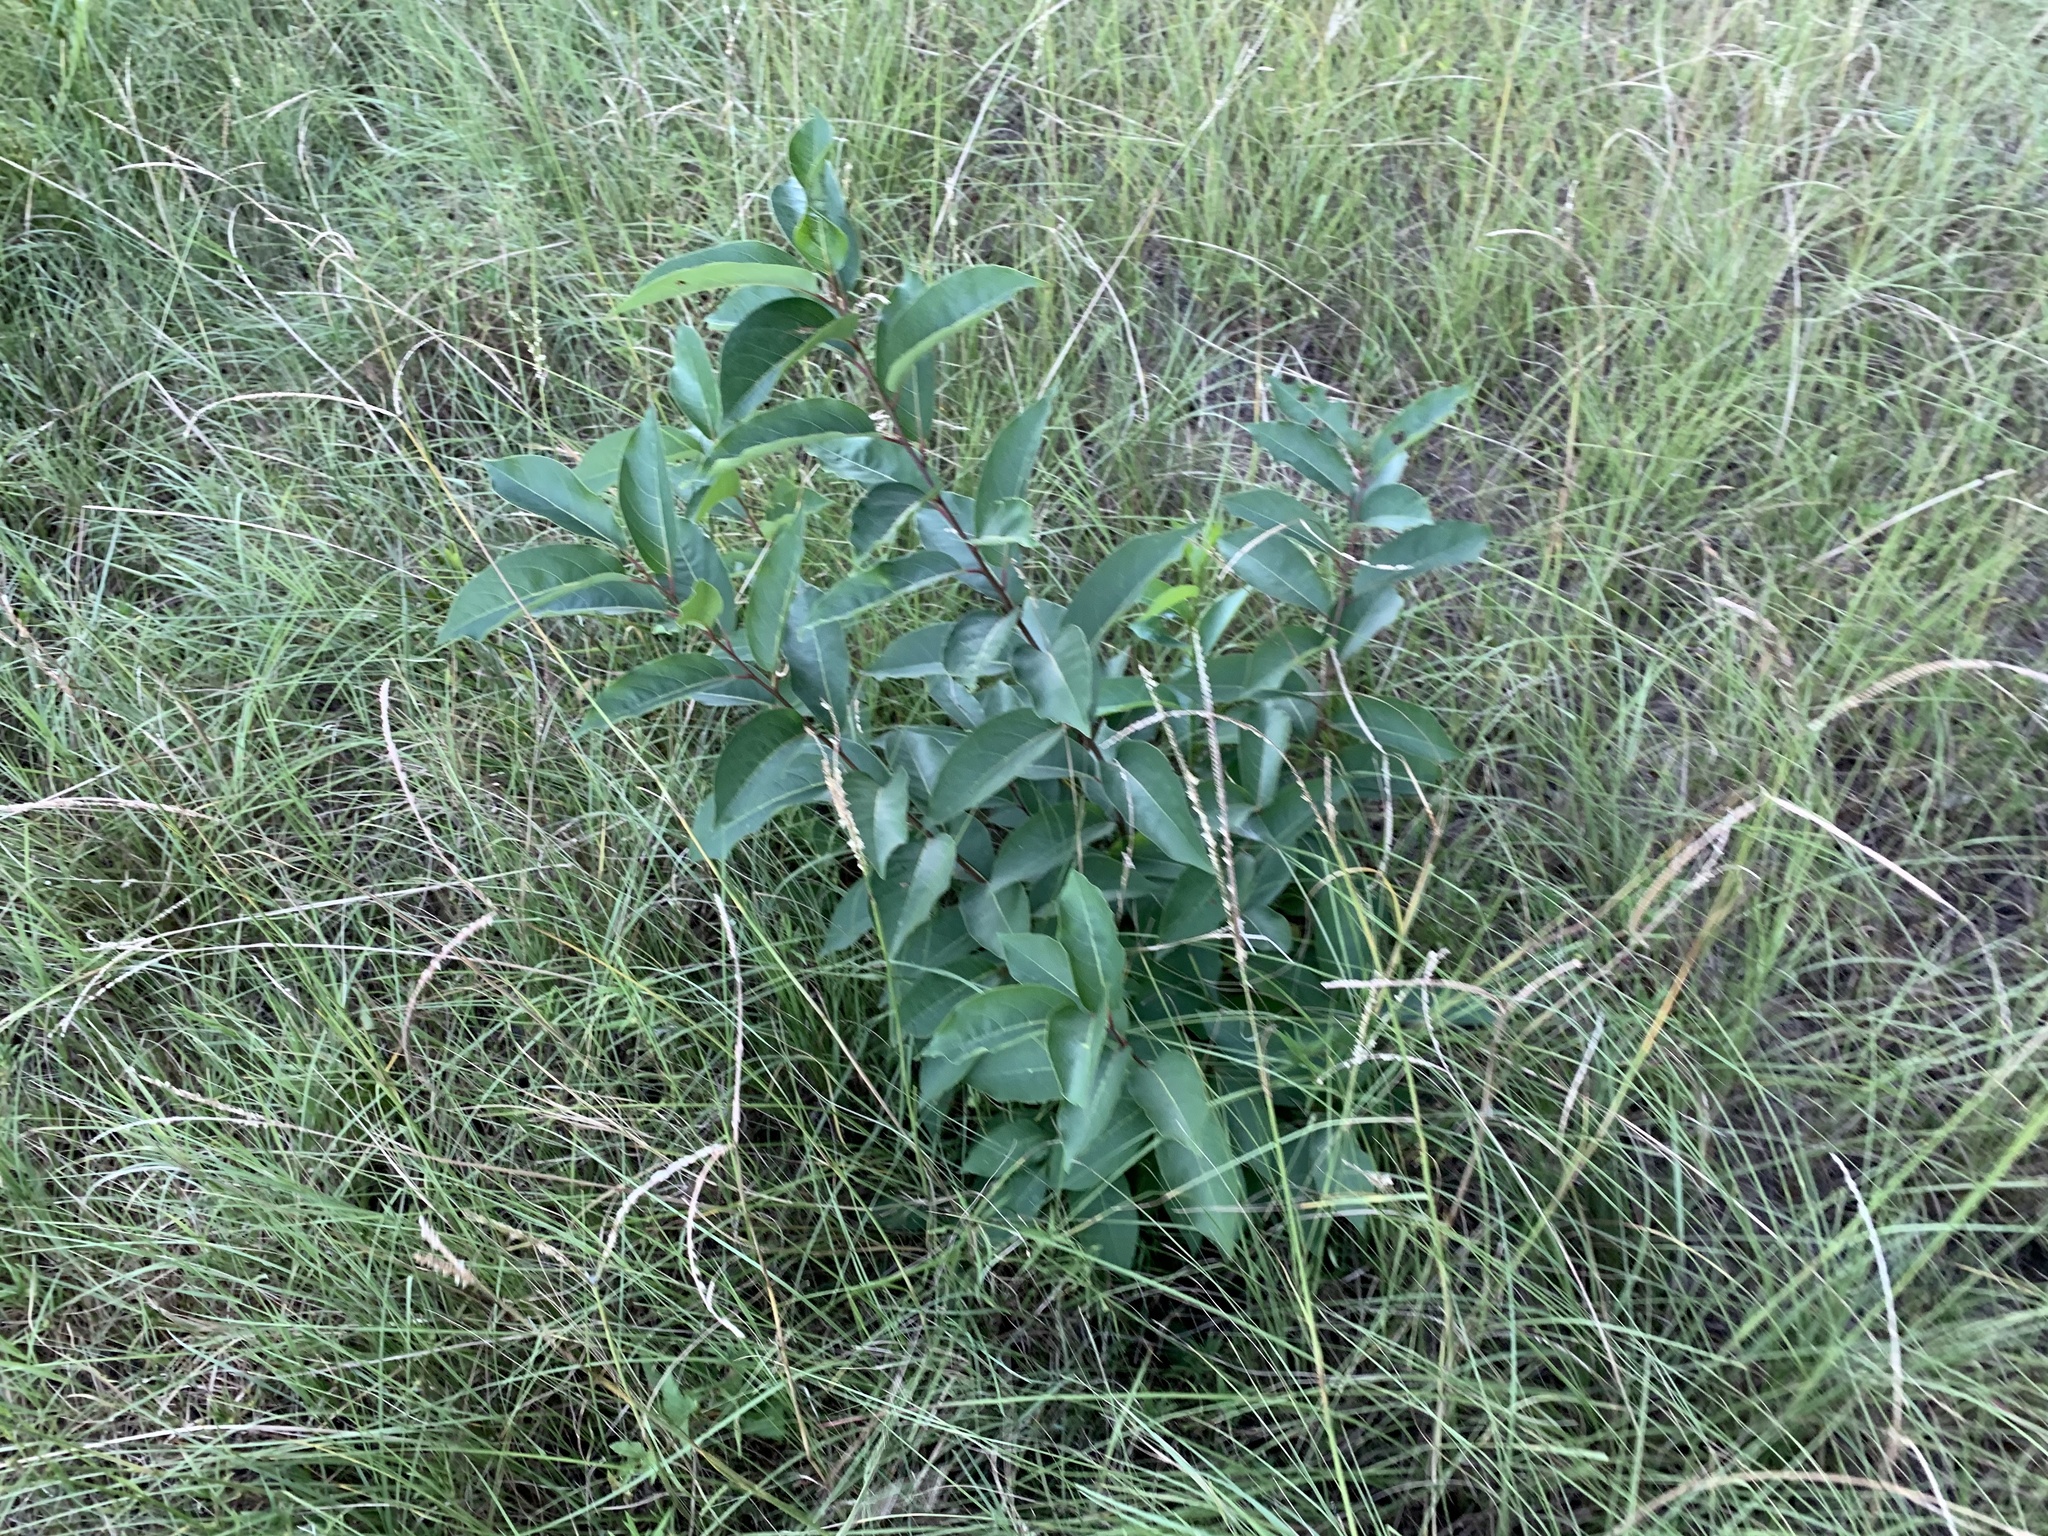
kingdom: Plantae
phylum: Tracheophyta
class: Magnoliopsida
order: Ericales
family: Ebenaceae
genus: Diospyros
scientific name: Diospyros virginiana
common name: Persimmon
